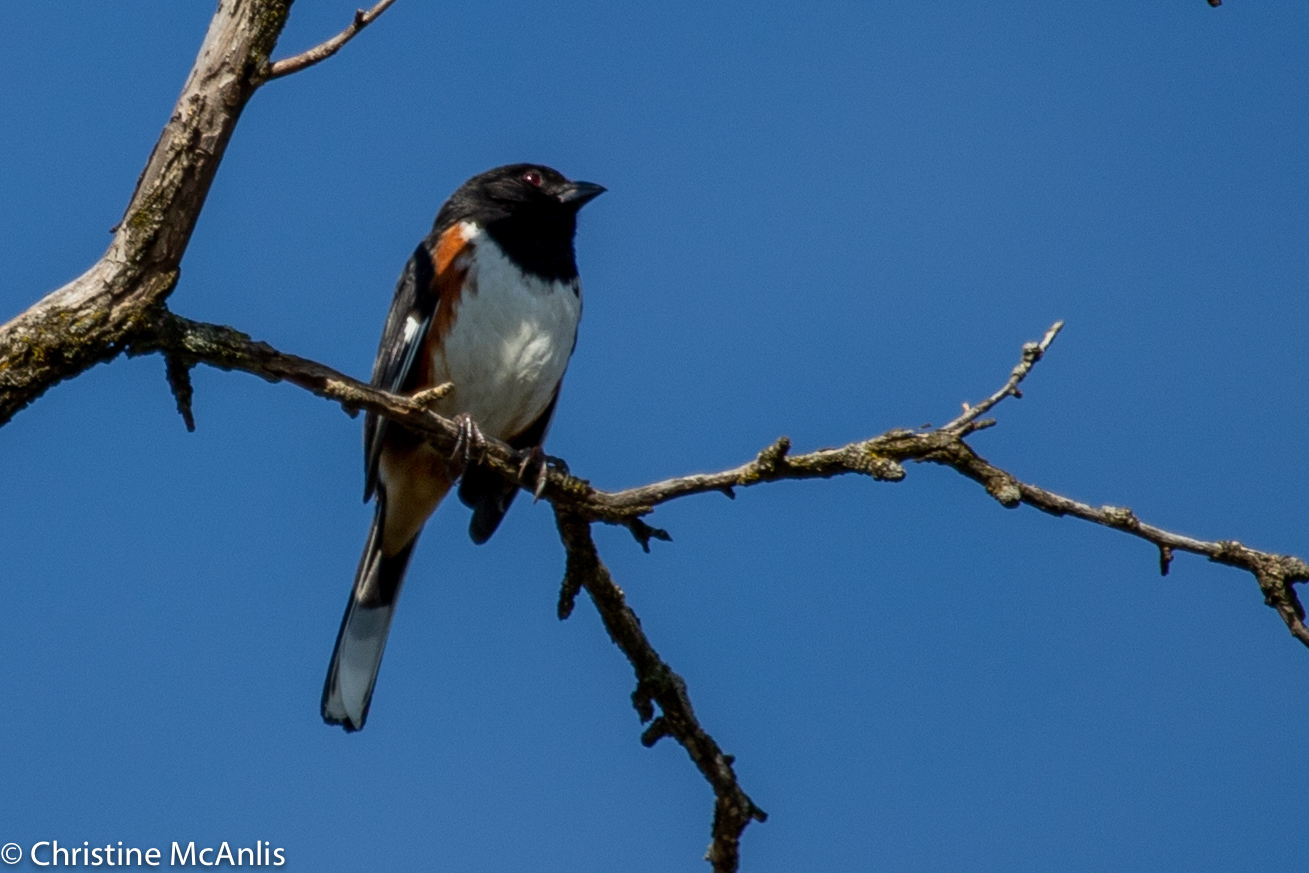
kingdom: Animalia
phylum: Chordata
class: Aves
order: Passeriformes
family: Passerellidae
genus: Pipilo
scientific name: Pipilo erythrophthalmus
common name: Eastern towhee
